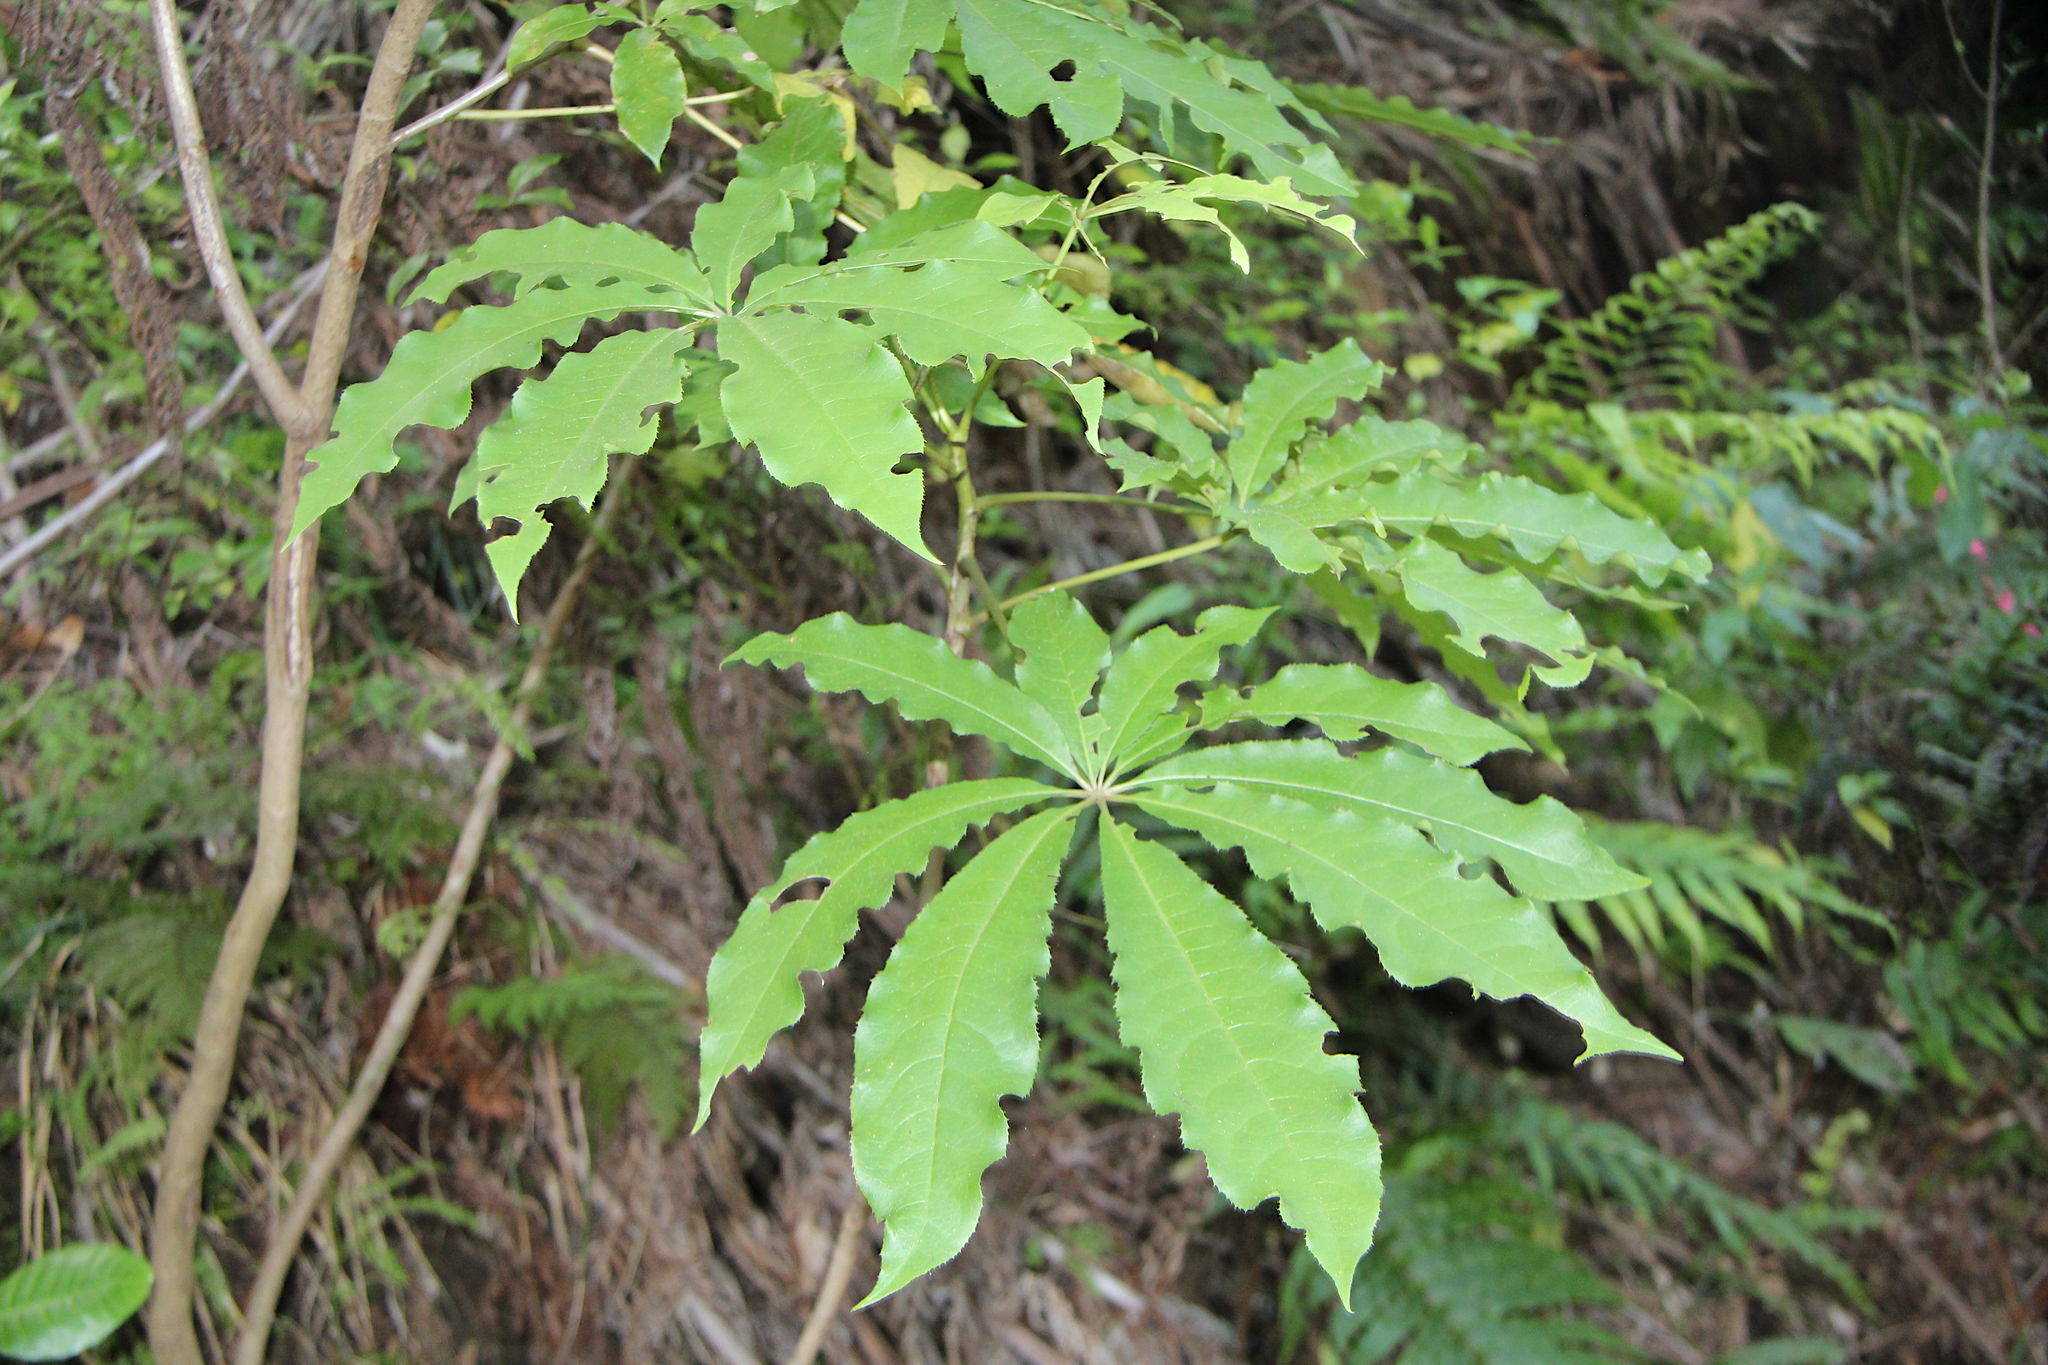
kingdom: Plantae
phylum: Tracheophyta
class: Magnoliopsida
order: Apiales
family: Araliaceae
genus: Schefflera
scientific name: Schefflera digitata
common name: Pate
